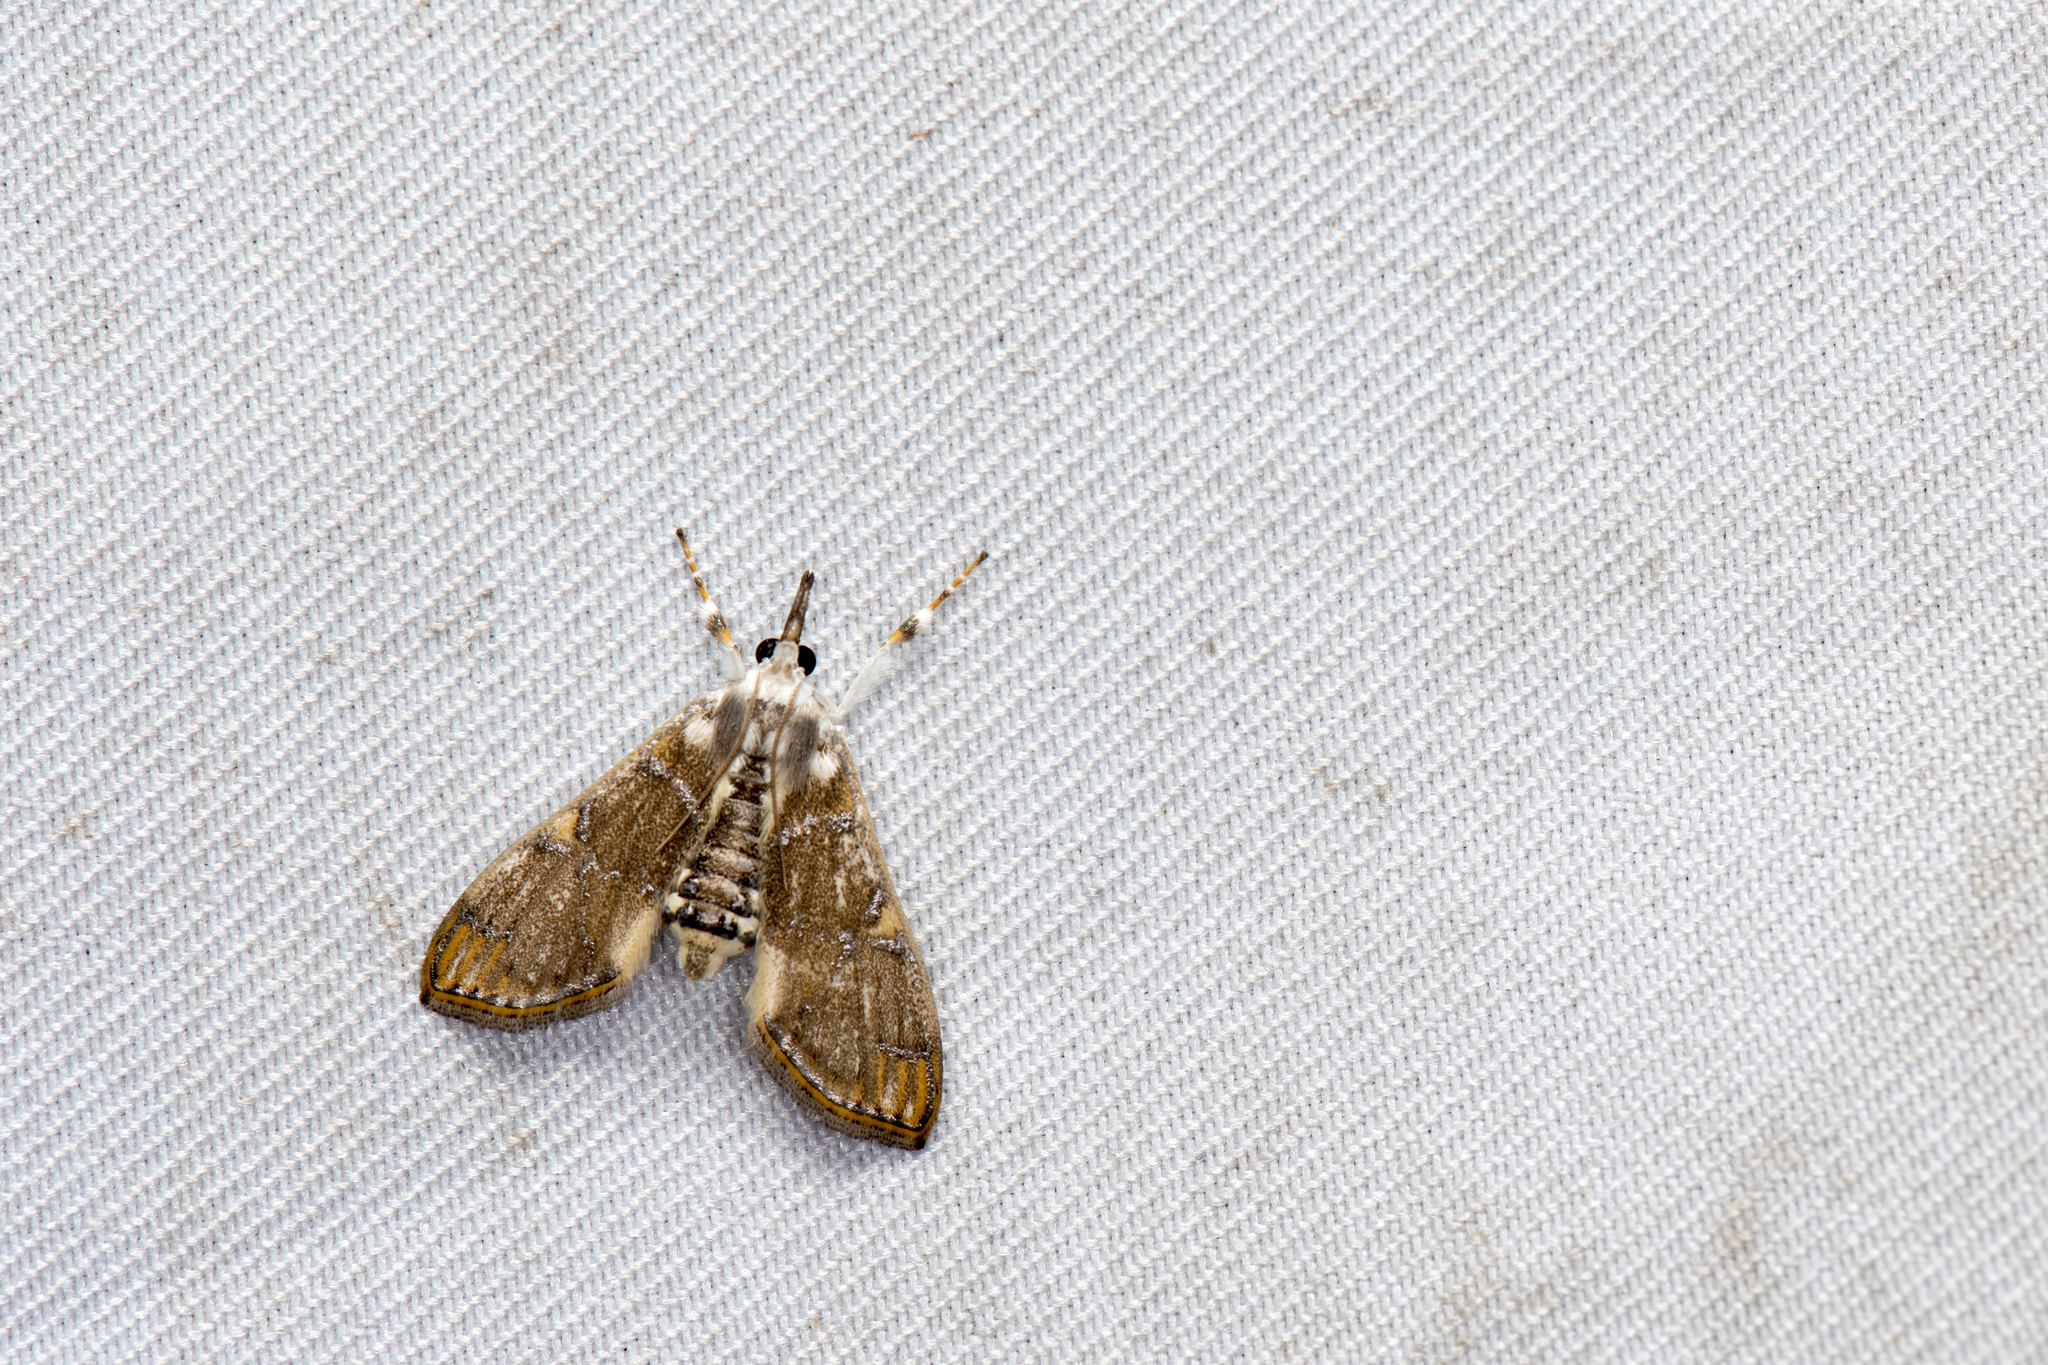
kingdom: Animalia
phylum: Arthropoda
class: Insecta
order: Lepidoptera
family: Crambidae
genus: Cirrhochrista
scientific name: Cirrhochrista fuscusa
